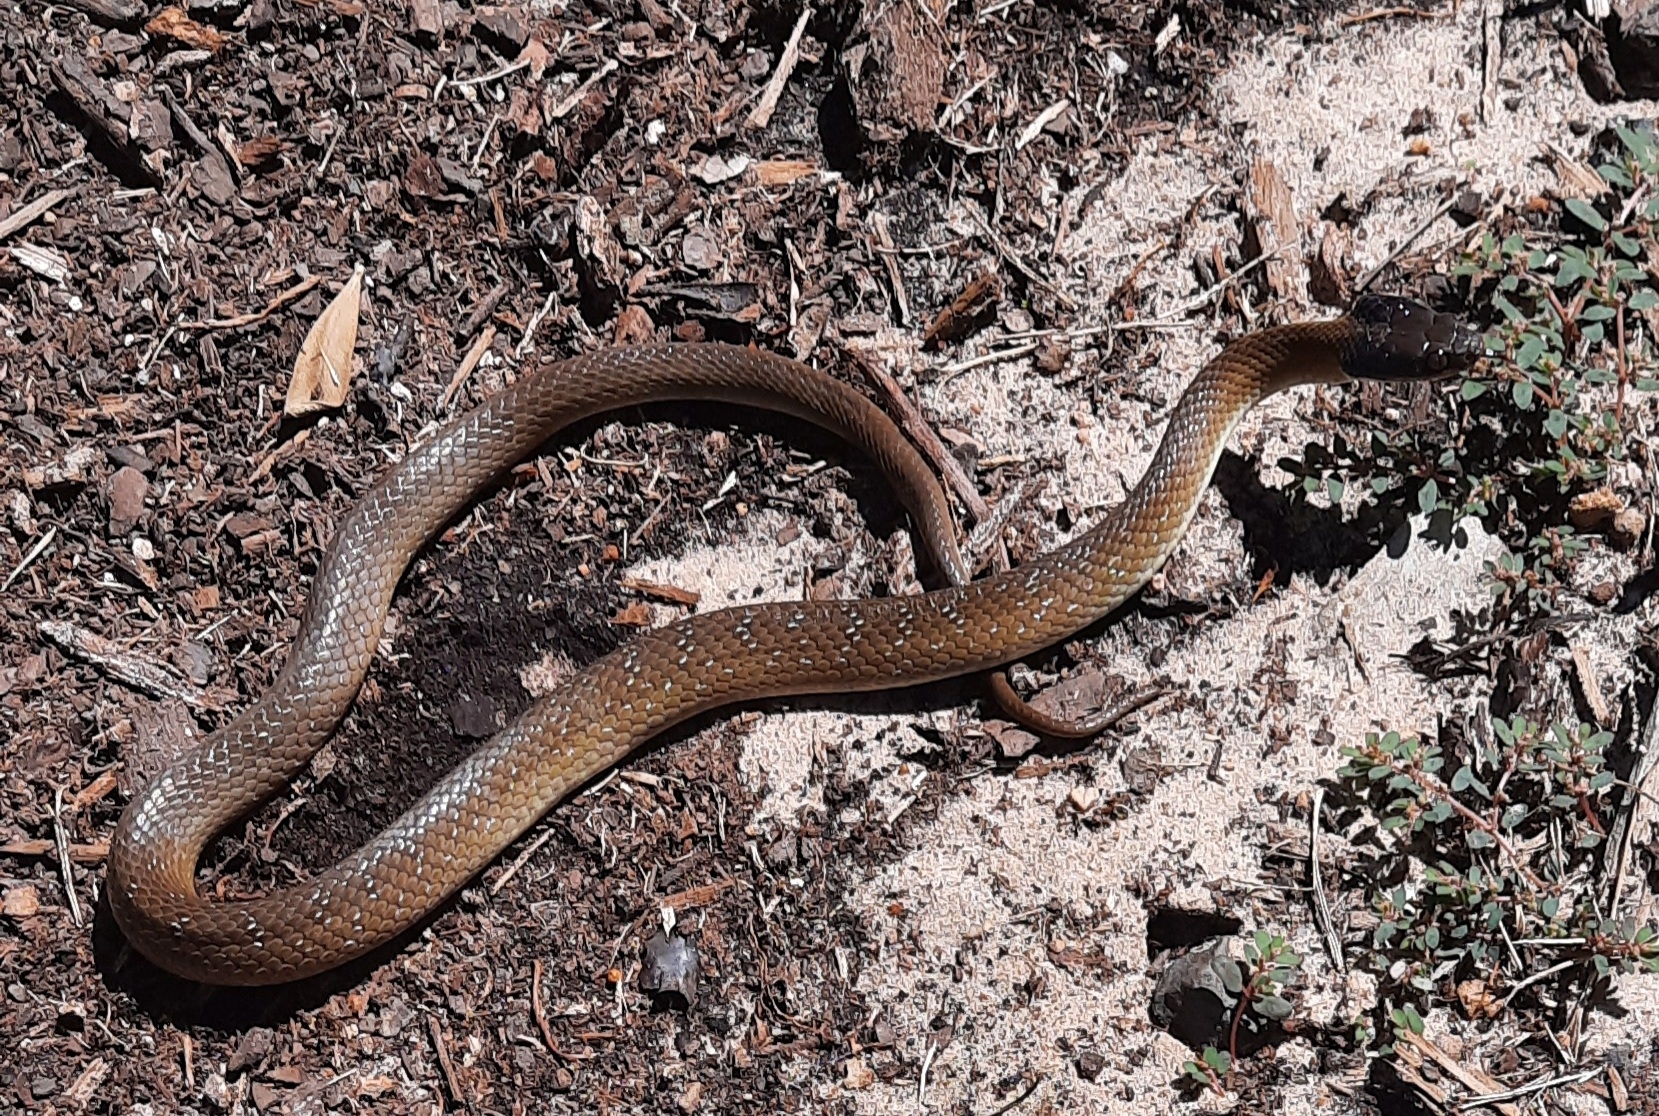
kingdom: Animalia
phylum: Chordata
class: Squamata
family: Colubridae
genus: Crotaphopeltis
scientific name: Crotaphopeltis hotamboeia
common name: Red-lipped snake
